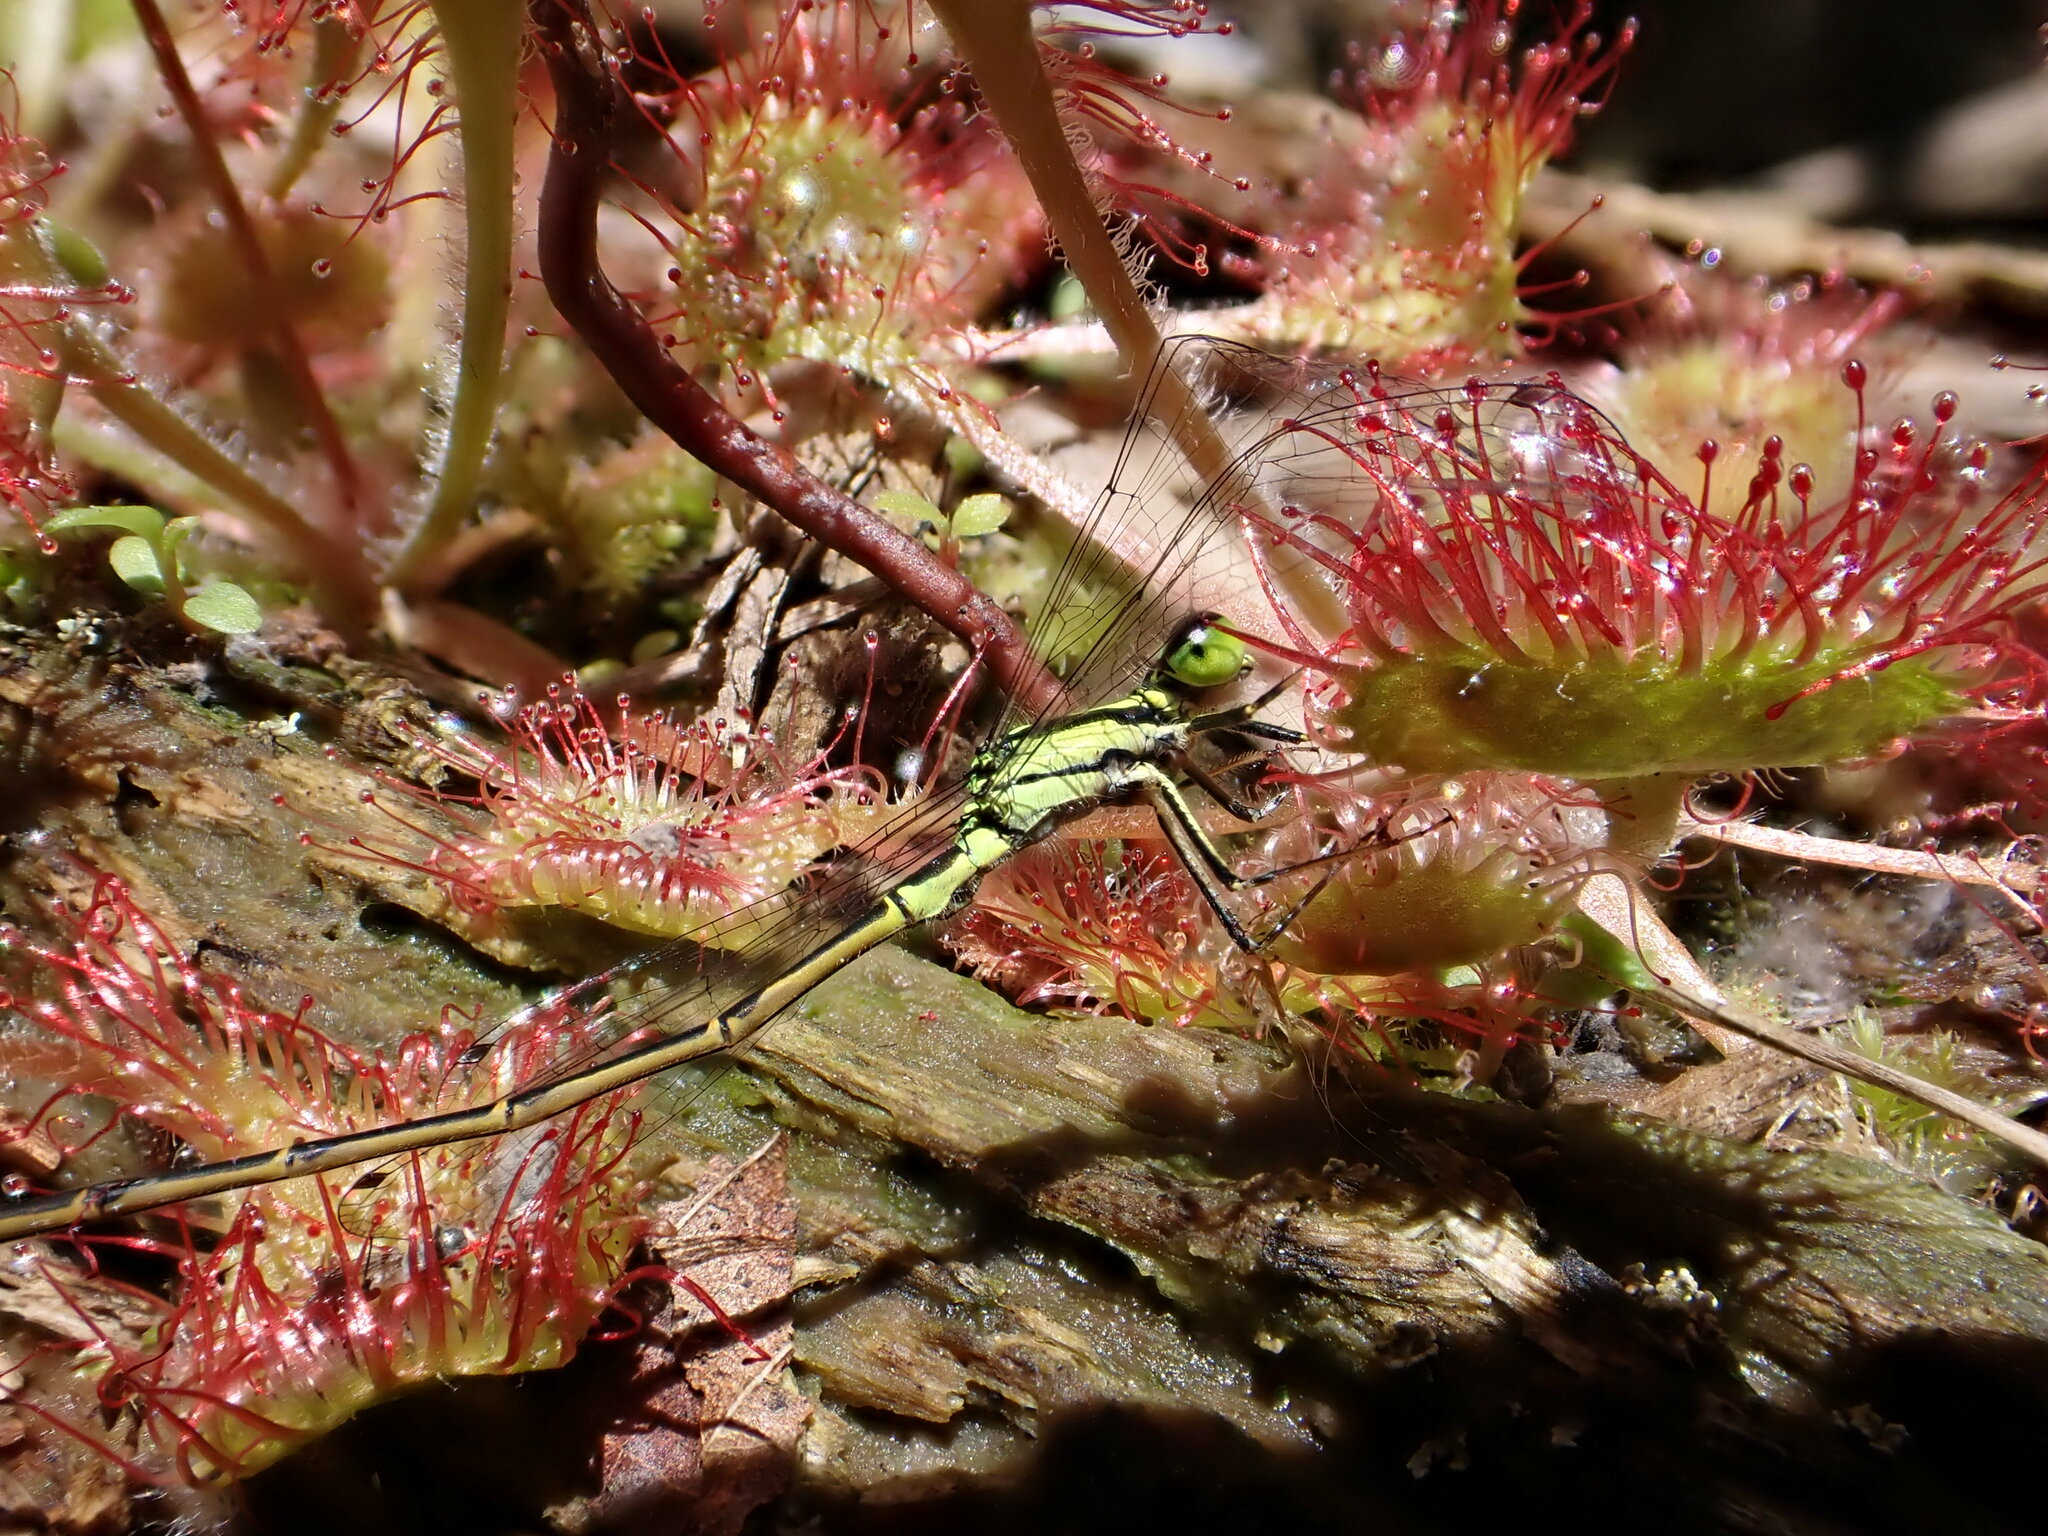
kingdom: Animalia
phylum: Arthropoda
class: Insecta
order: Odonata
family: Coenagrionidae
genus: Ischnura
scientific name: Ischnura posita
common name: Fragile forktail
